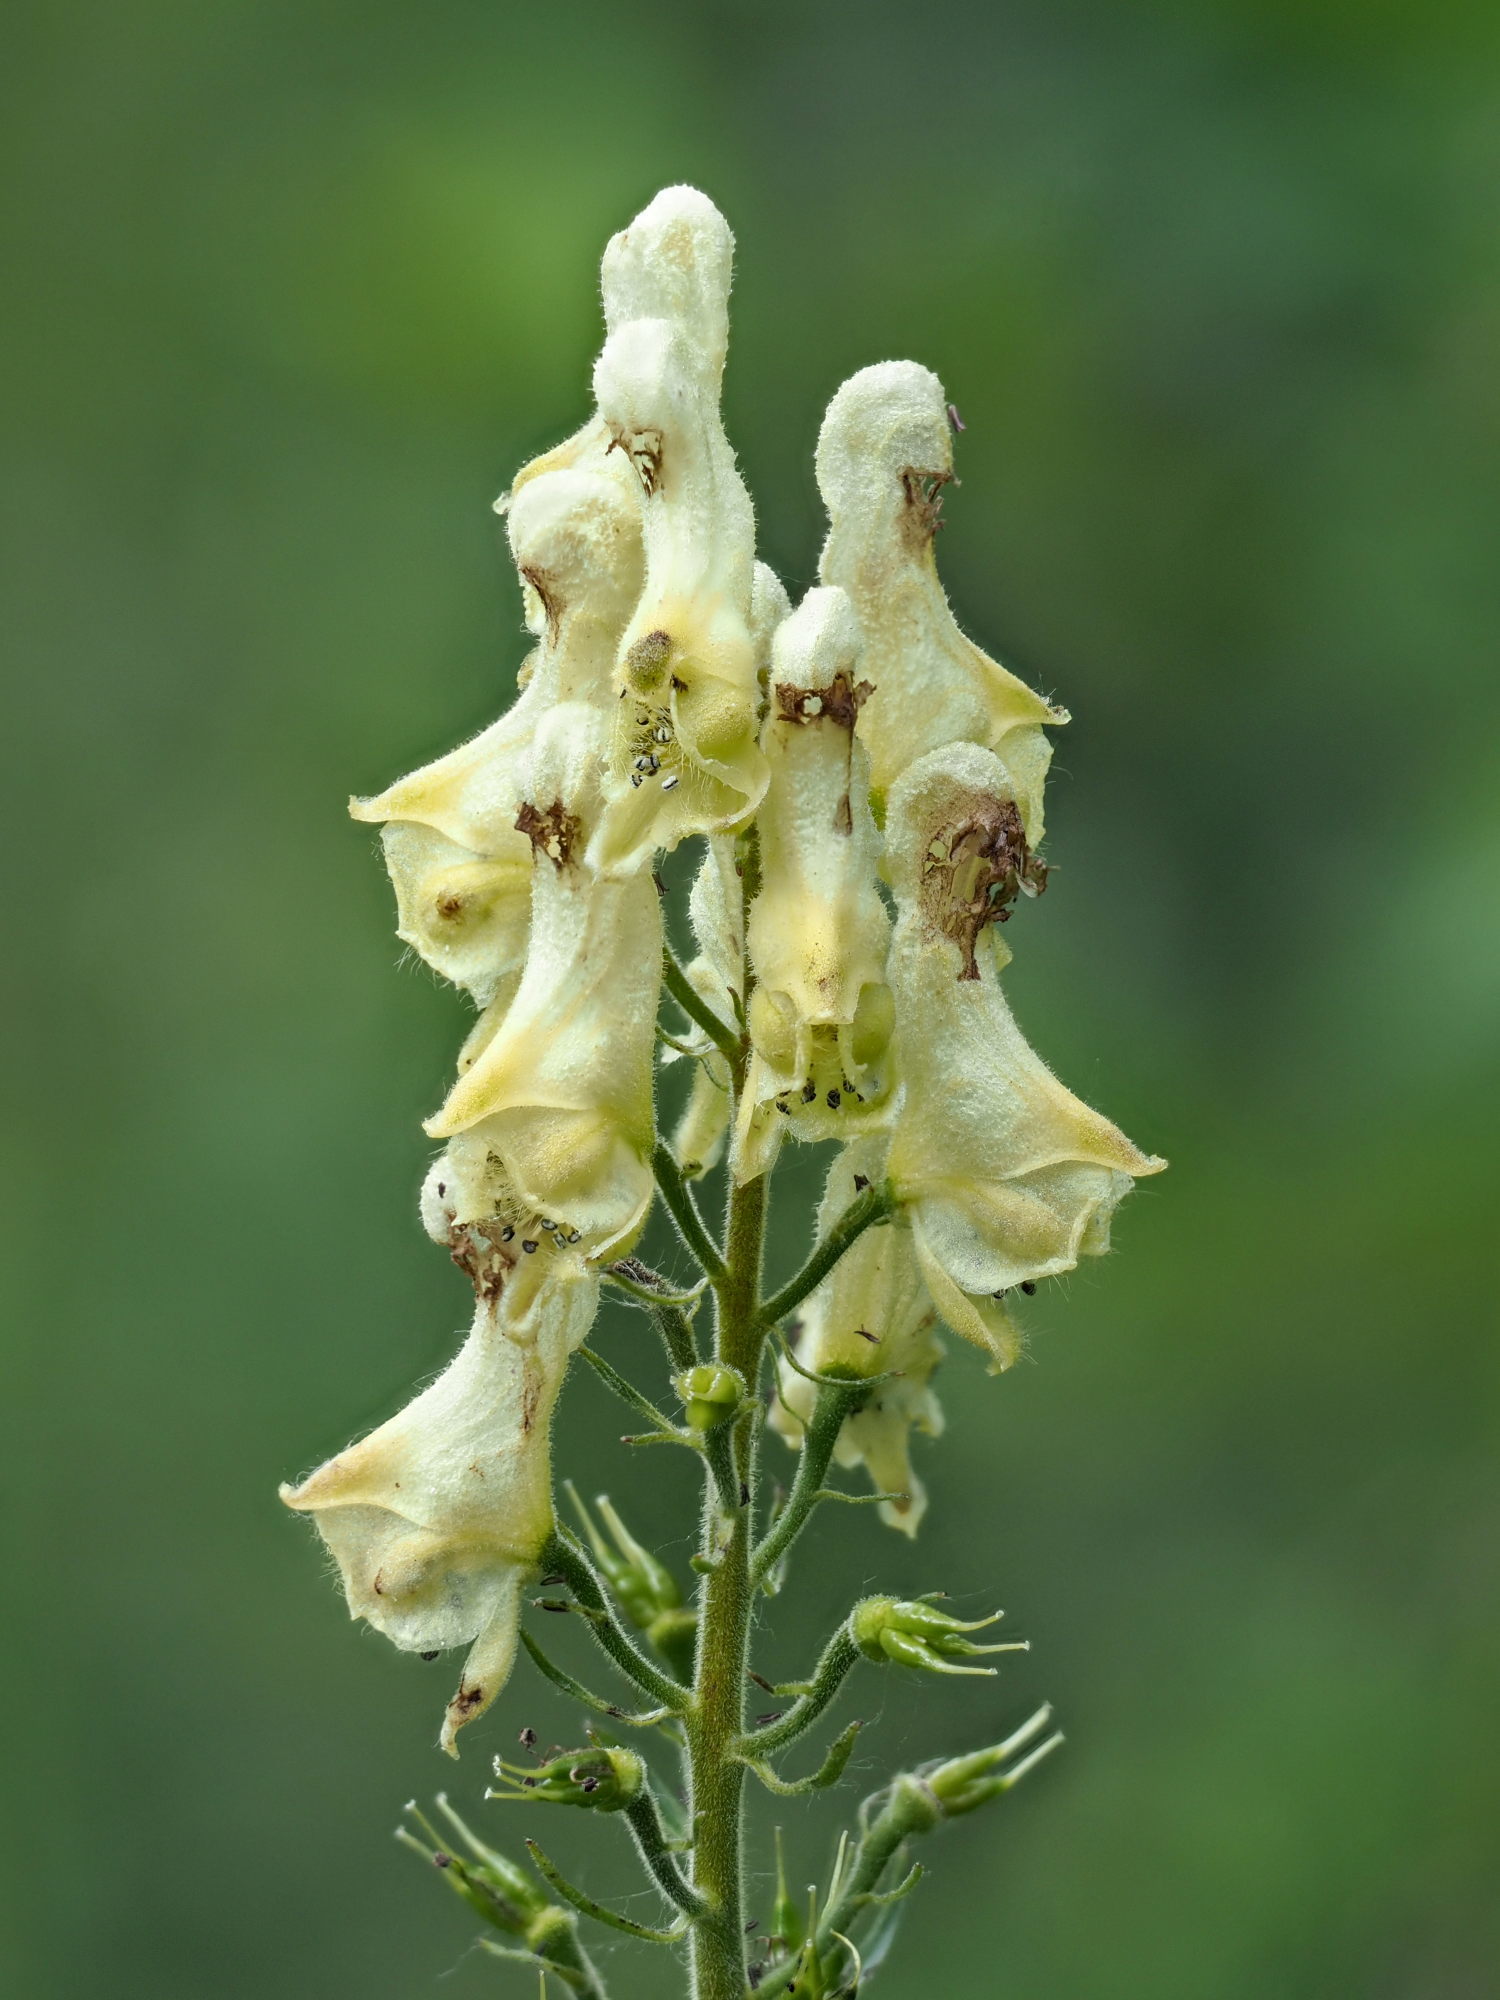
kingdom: Plantae
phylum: Tracheophyta
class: Magnoliopsida
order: Ranunculales
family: Ranunculaceae
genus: Aconitum
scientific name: Aconitum lycoctonum
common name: Wolf's-bane
